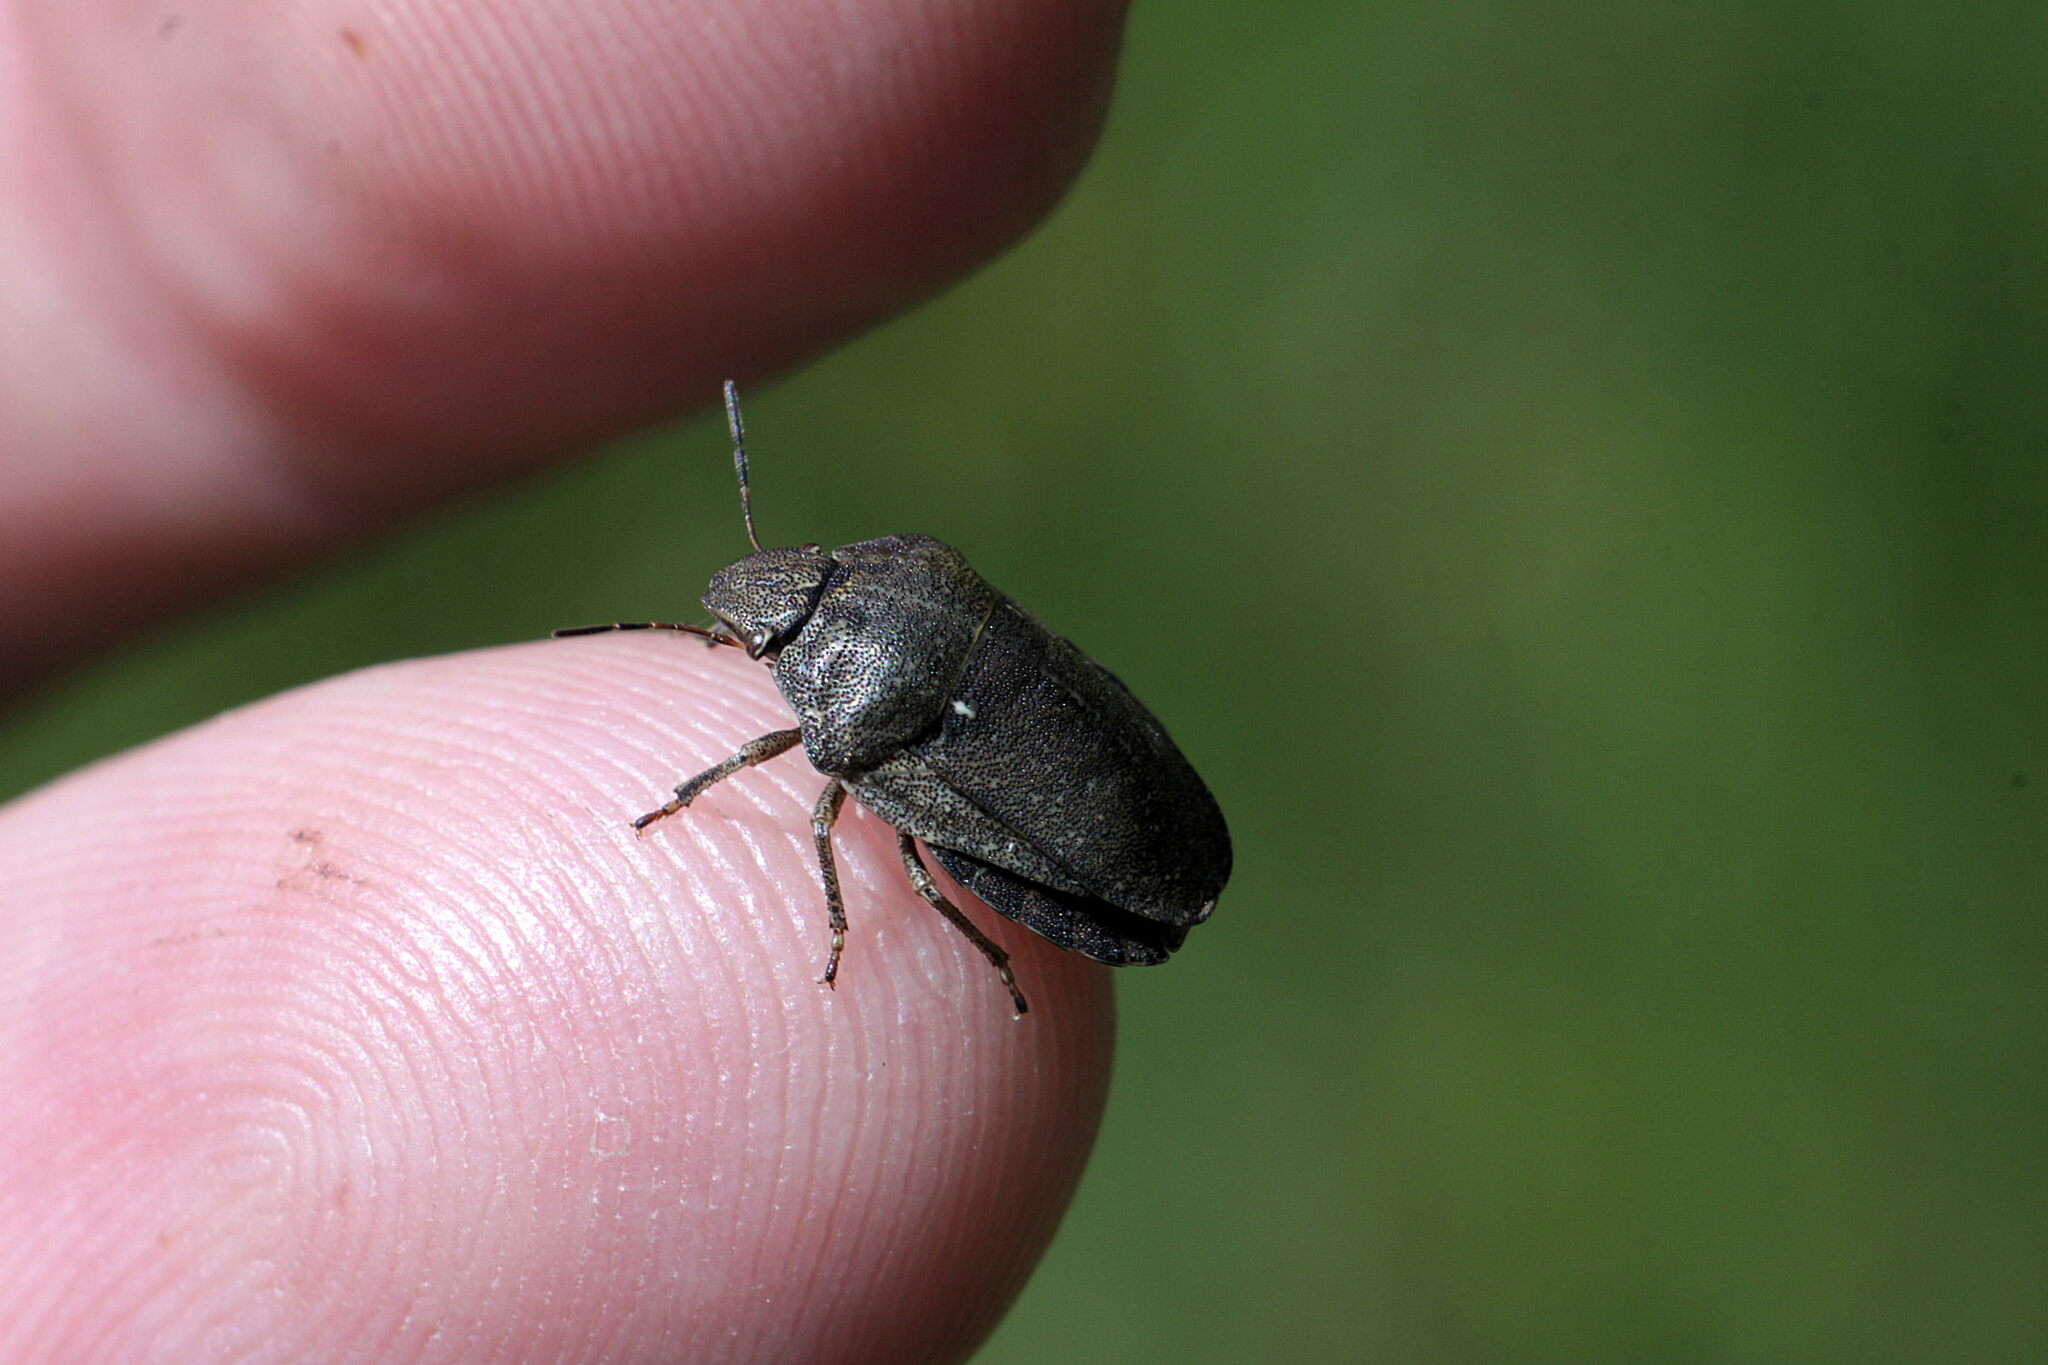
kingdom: Animalia
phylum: Arthropoda
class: Insecta
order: Hemiptera
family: Scutelleridae
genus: Eurygaster
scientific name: Eurygaster testudinaria
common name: Tortoise bug
